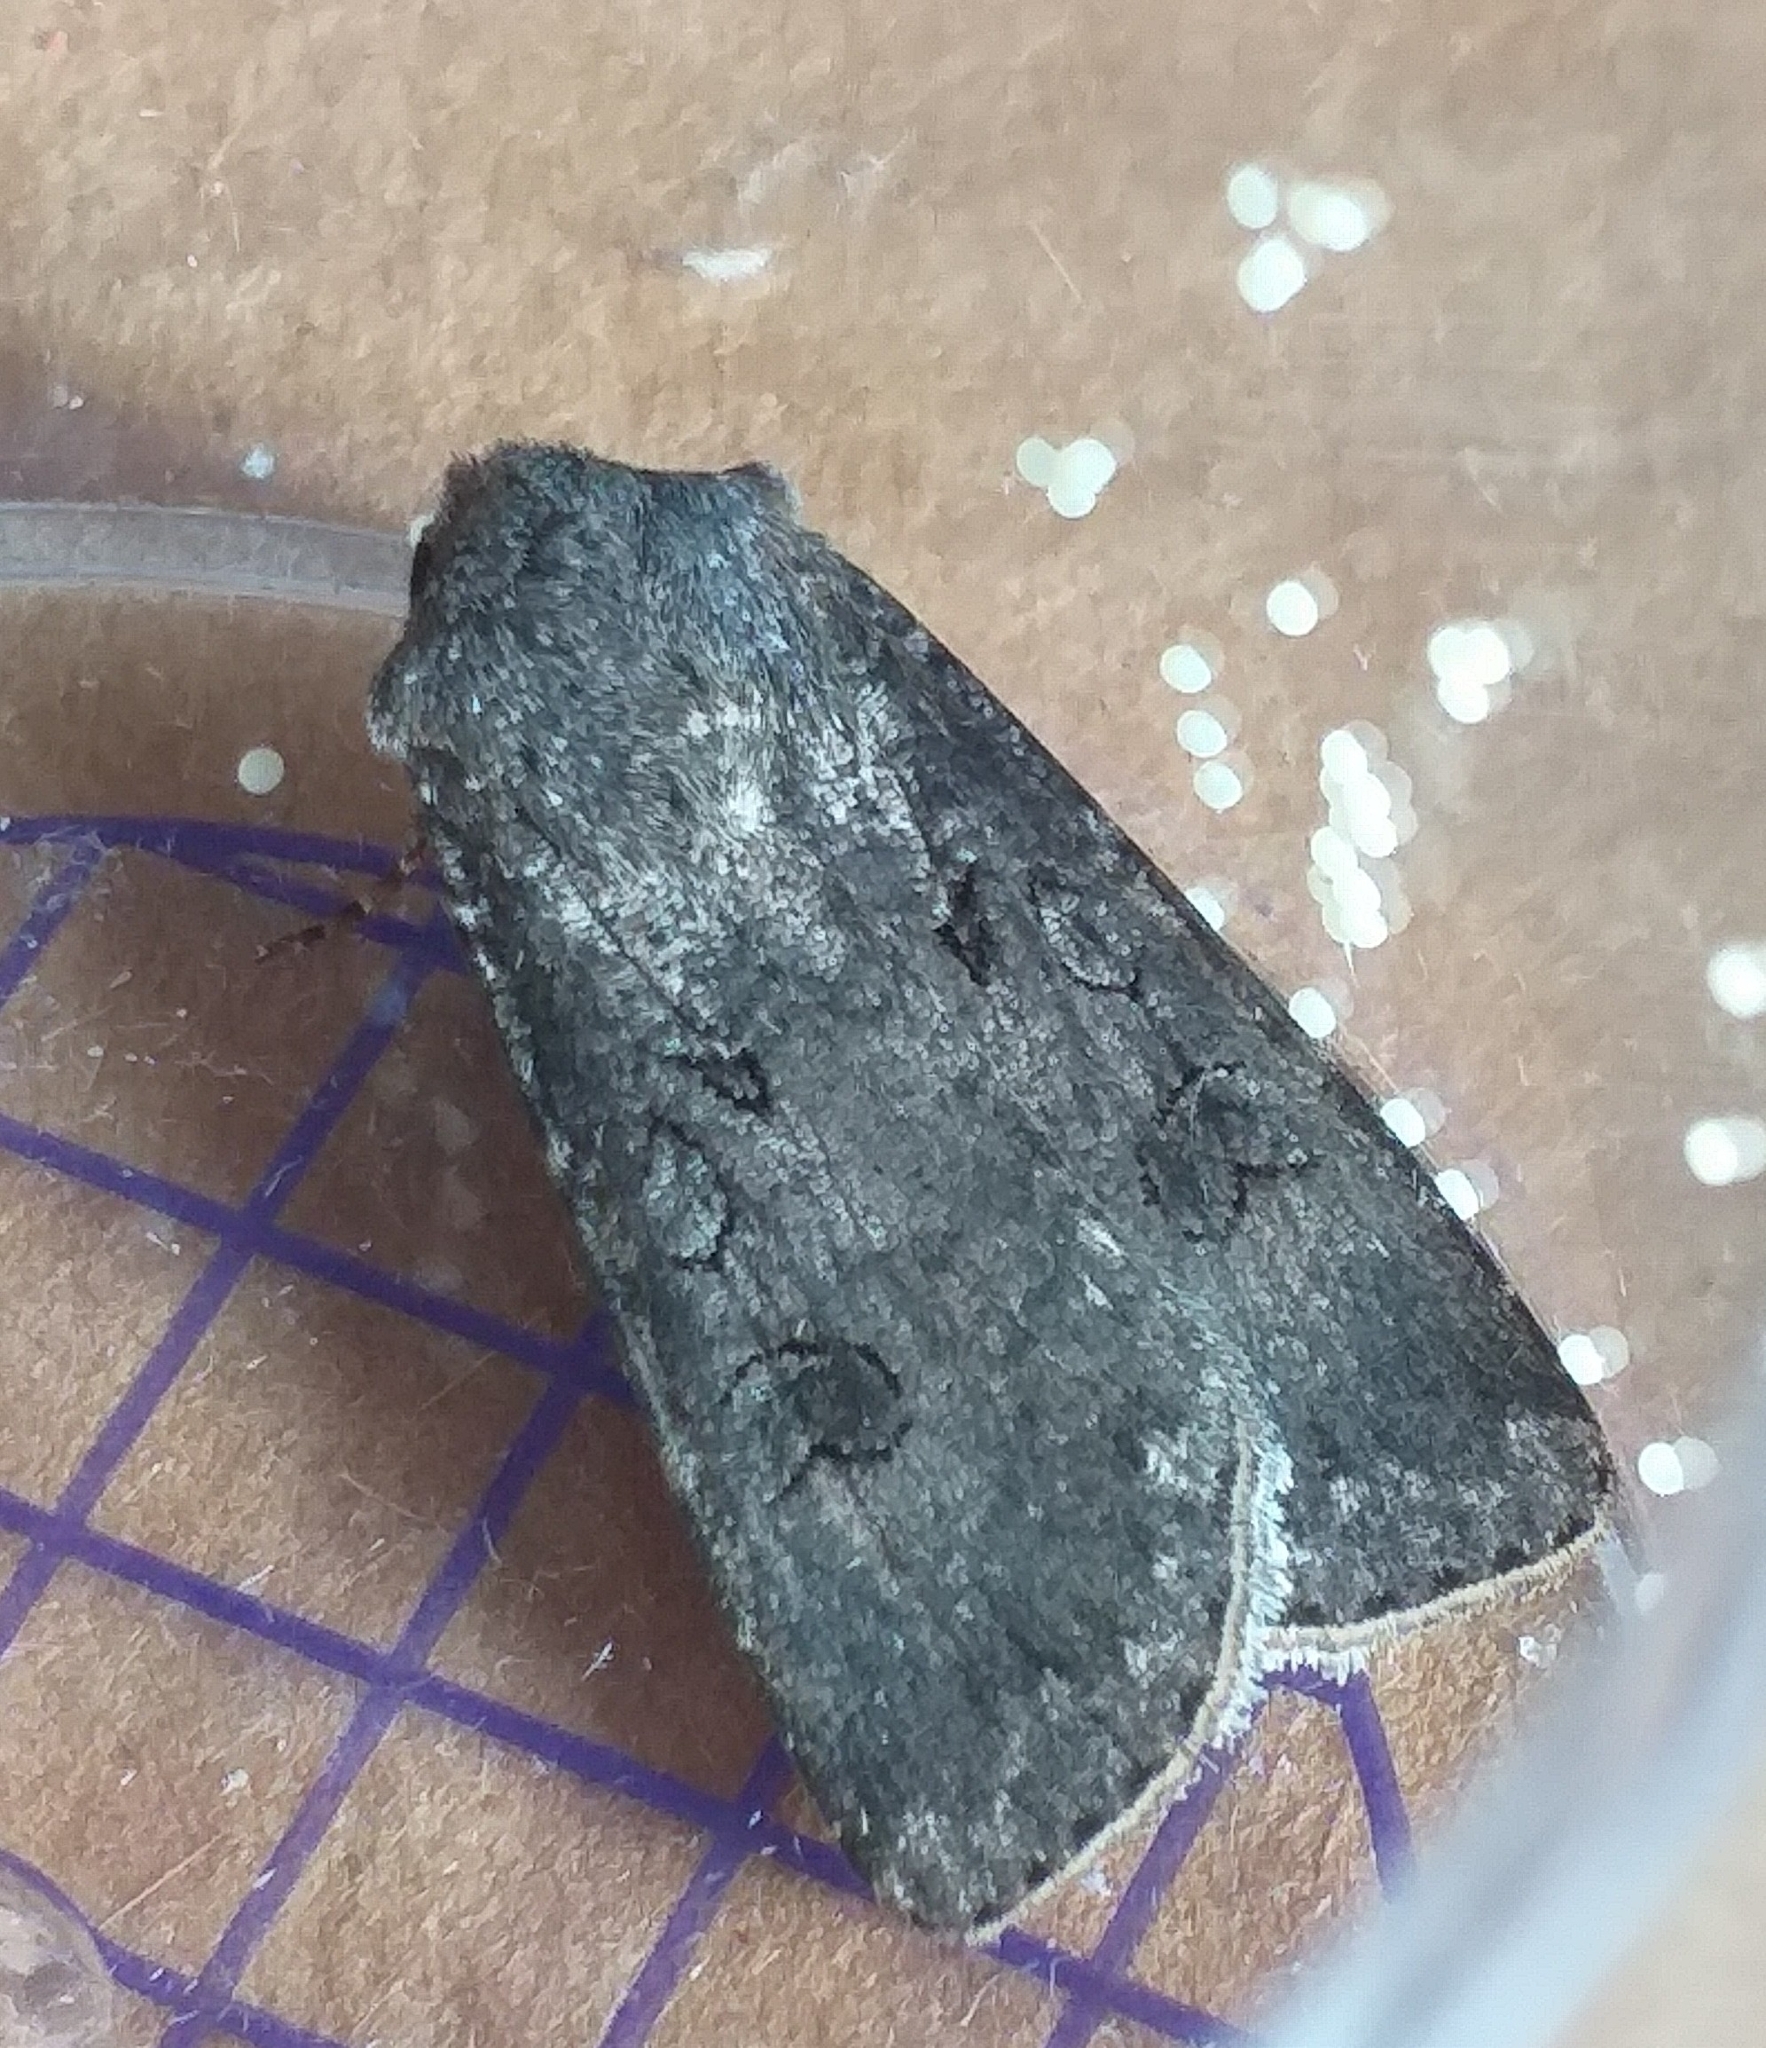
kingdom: Animalia
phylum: Arthropoda
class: Insecta
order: Lepidoptera
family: Noctuidae
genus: Agrotis
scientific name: Agrotis segetum
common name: Turnip moth
